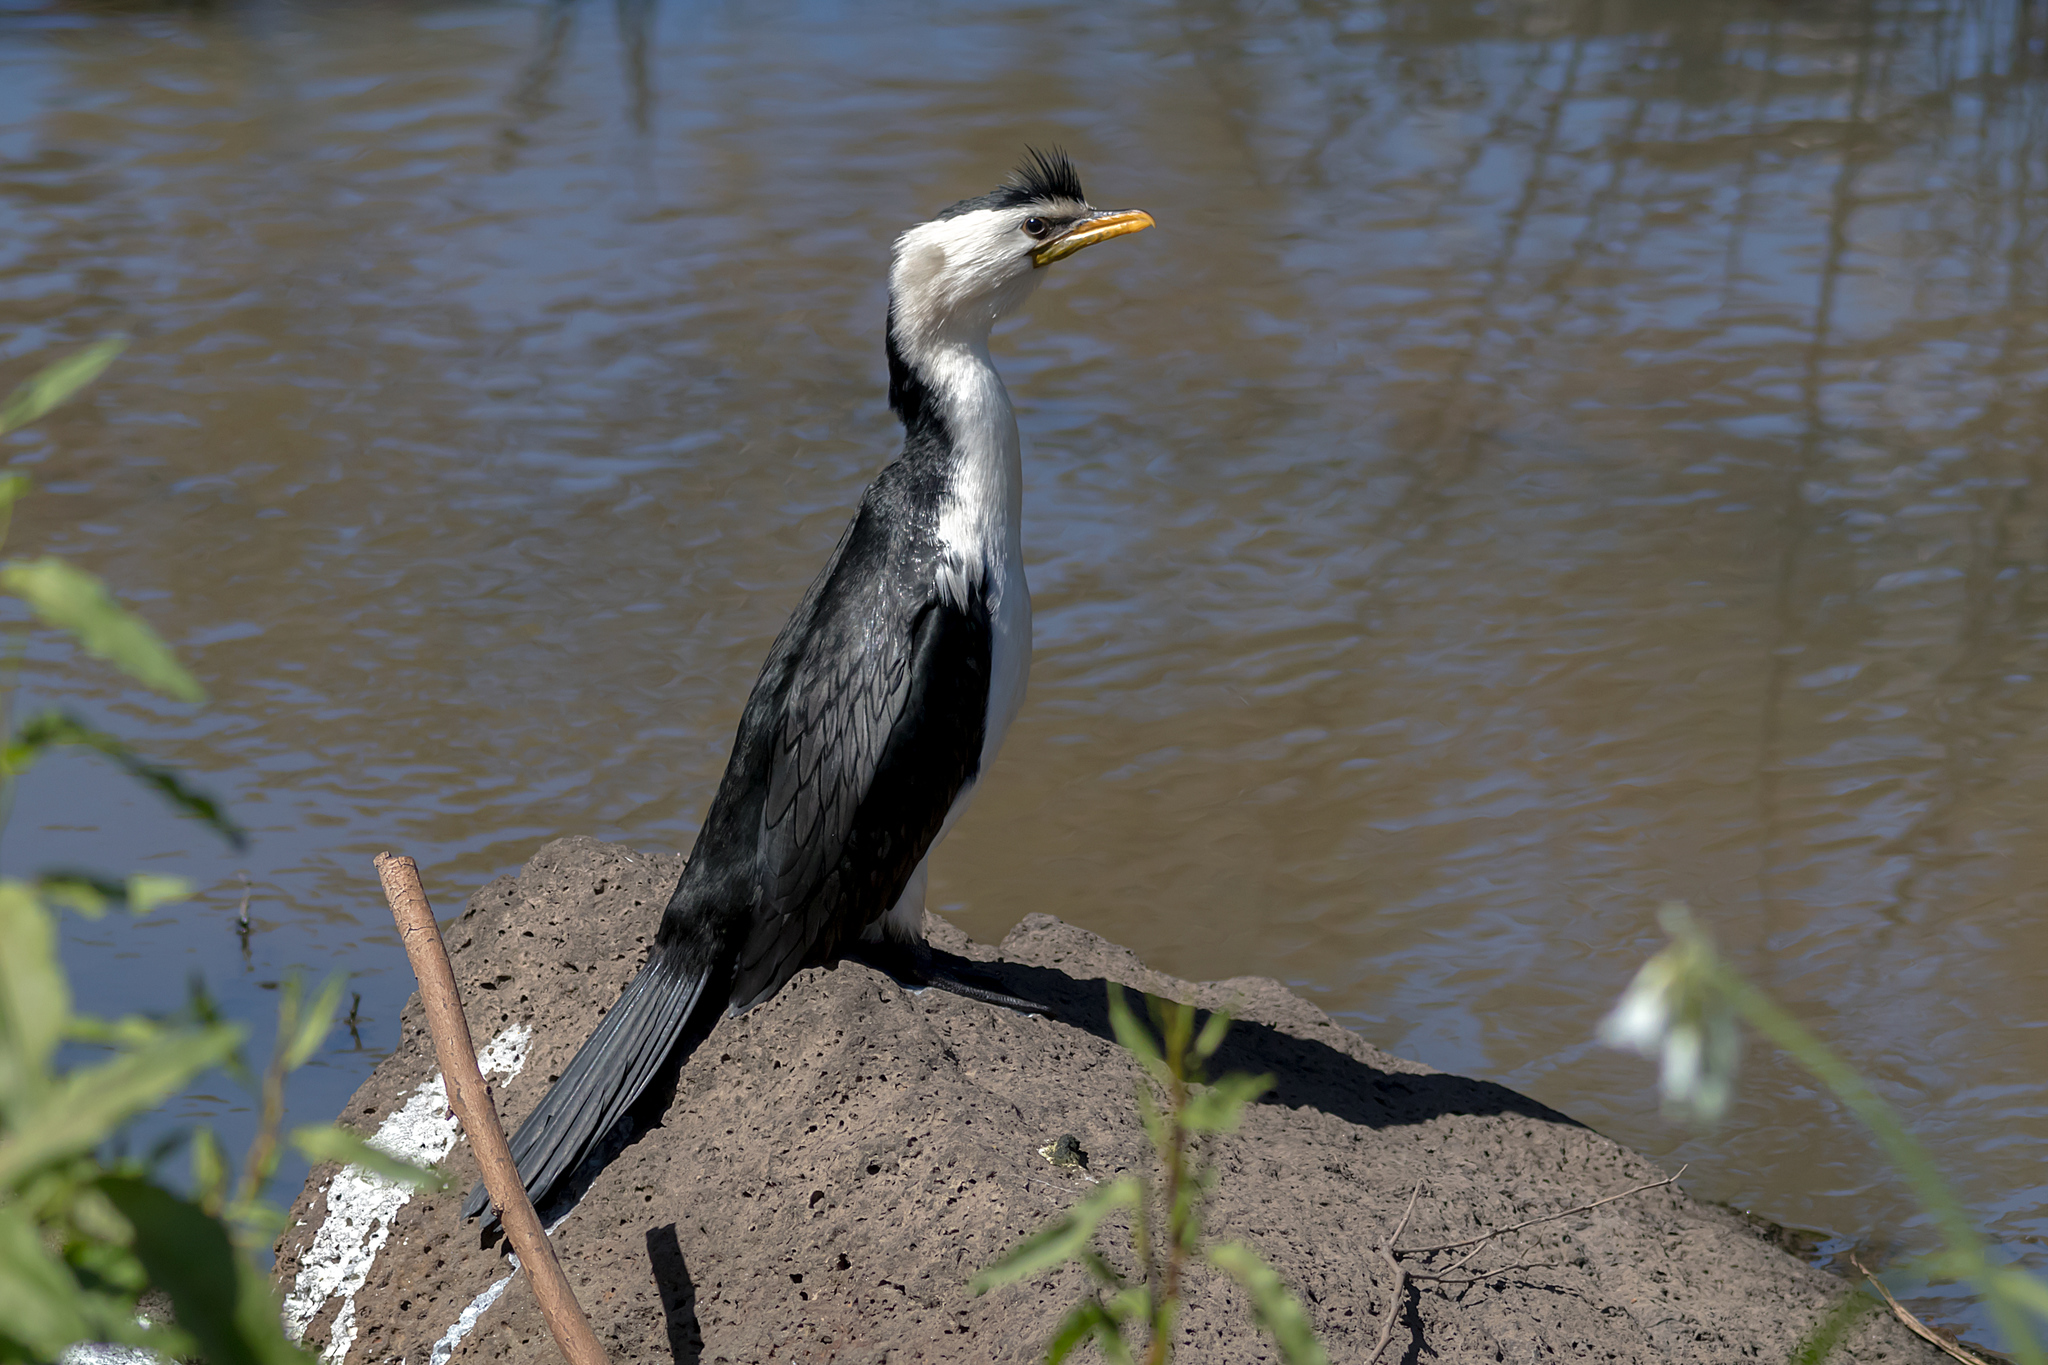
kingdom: Animalia
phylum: Chordata
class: Aves
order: Suliformes
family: Phalacrocoracidae
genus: Microcarbo
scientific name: Microcarbo melanoleucos
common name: Little pied cormorant
